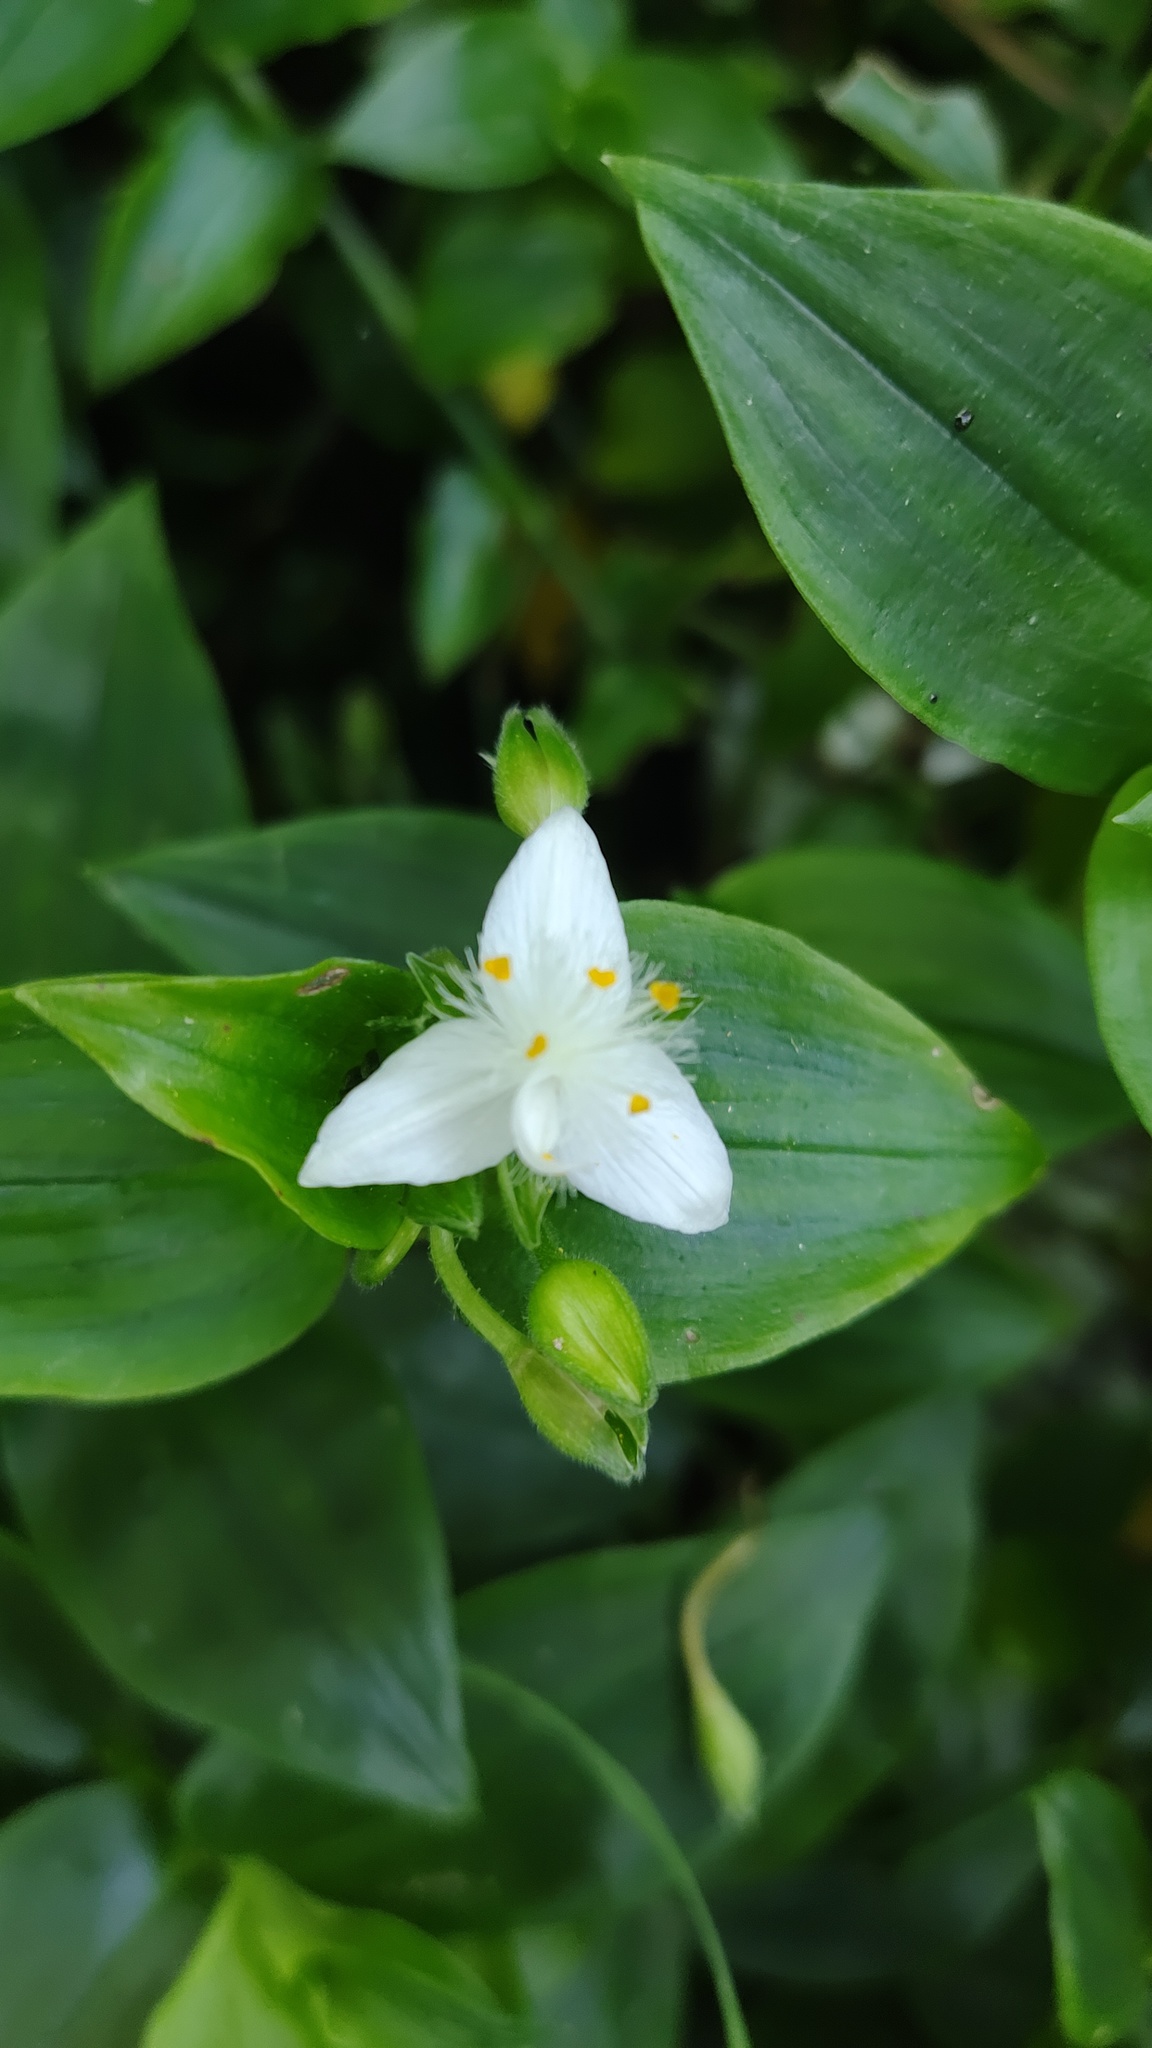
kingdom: Plantae
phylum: Tracheophyta
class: Liliopsida
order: Commelinales
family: Commelinaceae
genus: Tradescantia
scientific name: Tradescantia fluminensis
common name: Wandering-jew
